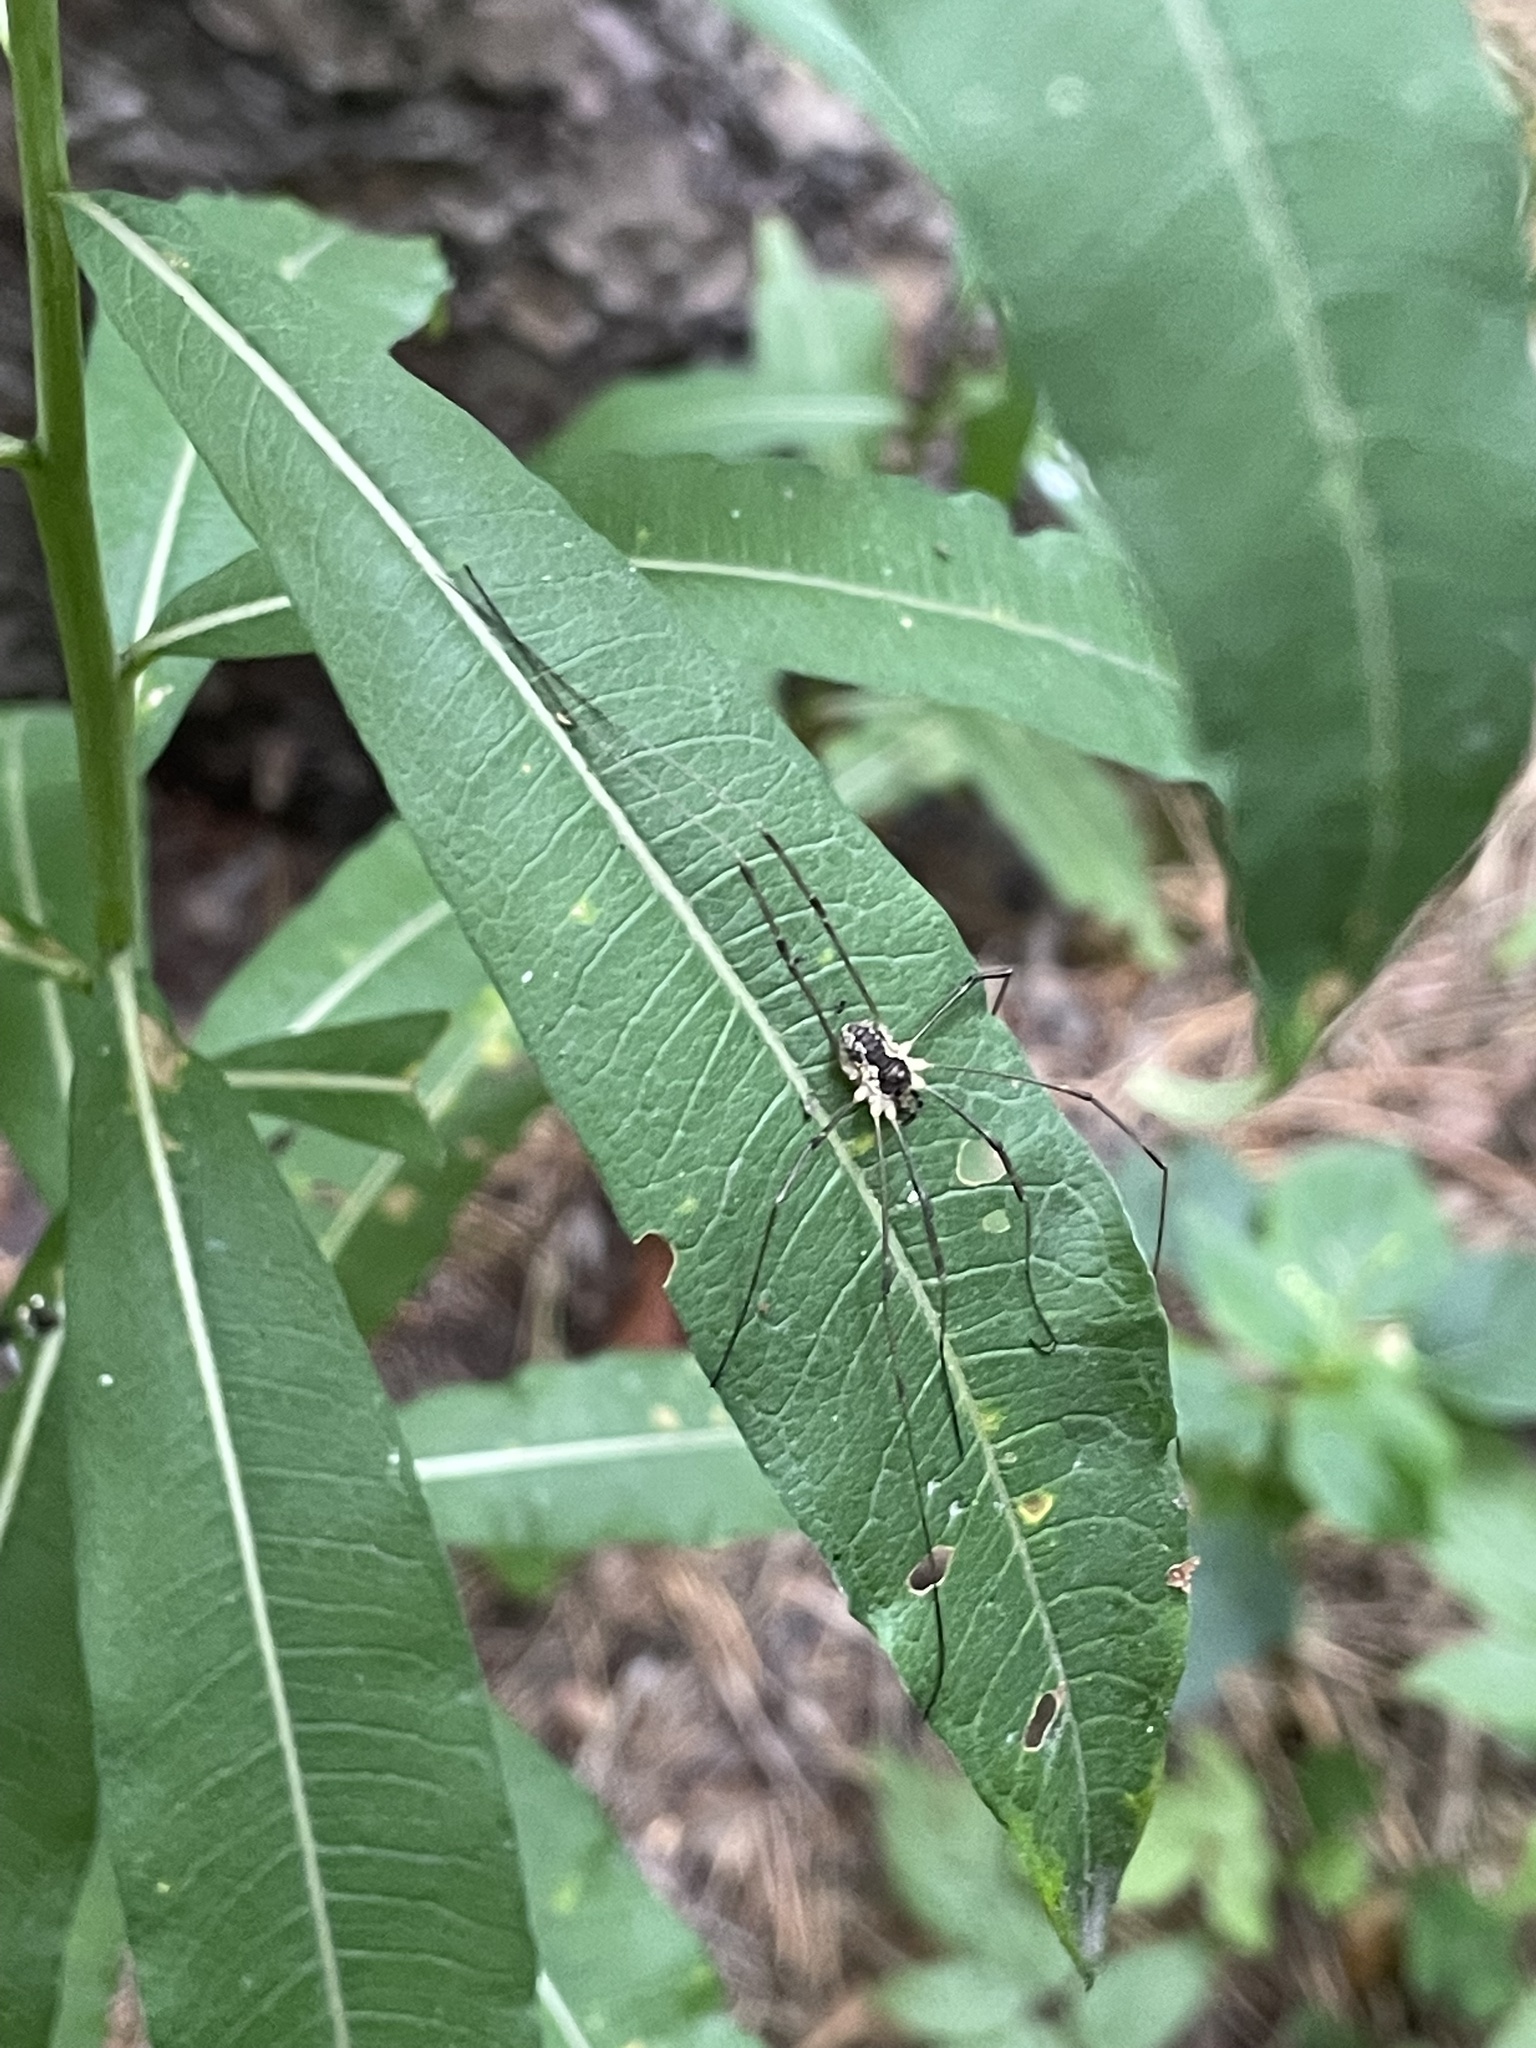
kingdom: Animalia
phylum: Arthropoda
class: Arachnida
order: Opiliones
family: Phalangiidae
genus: Mitopus
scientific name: Mitopus morio
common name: Saddleback harvestman
